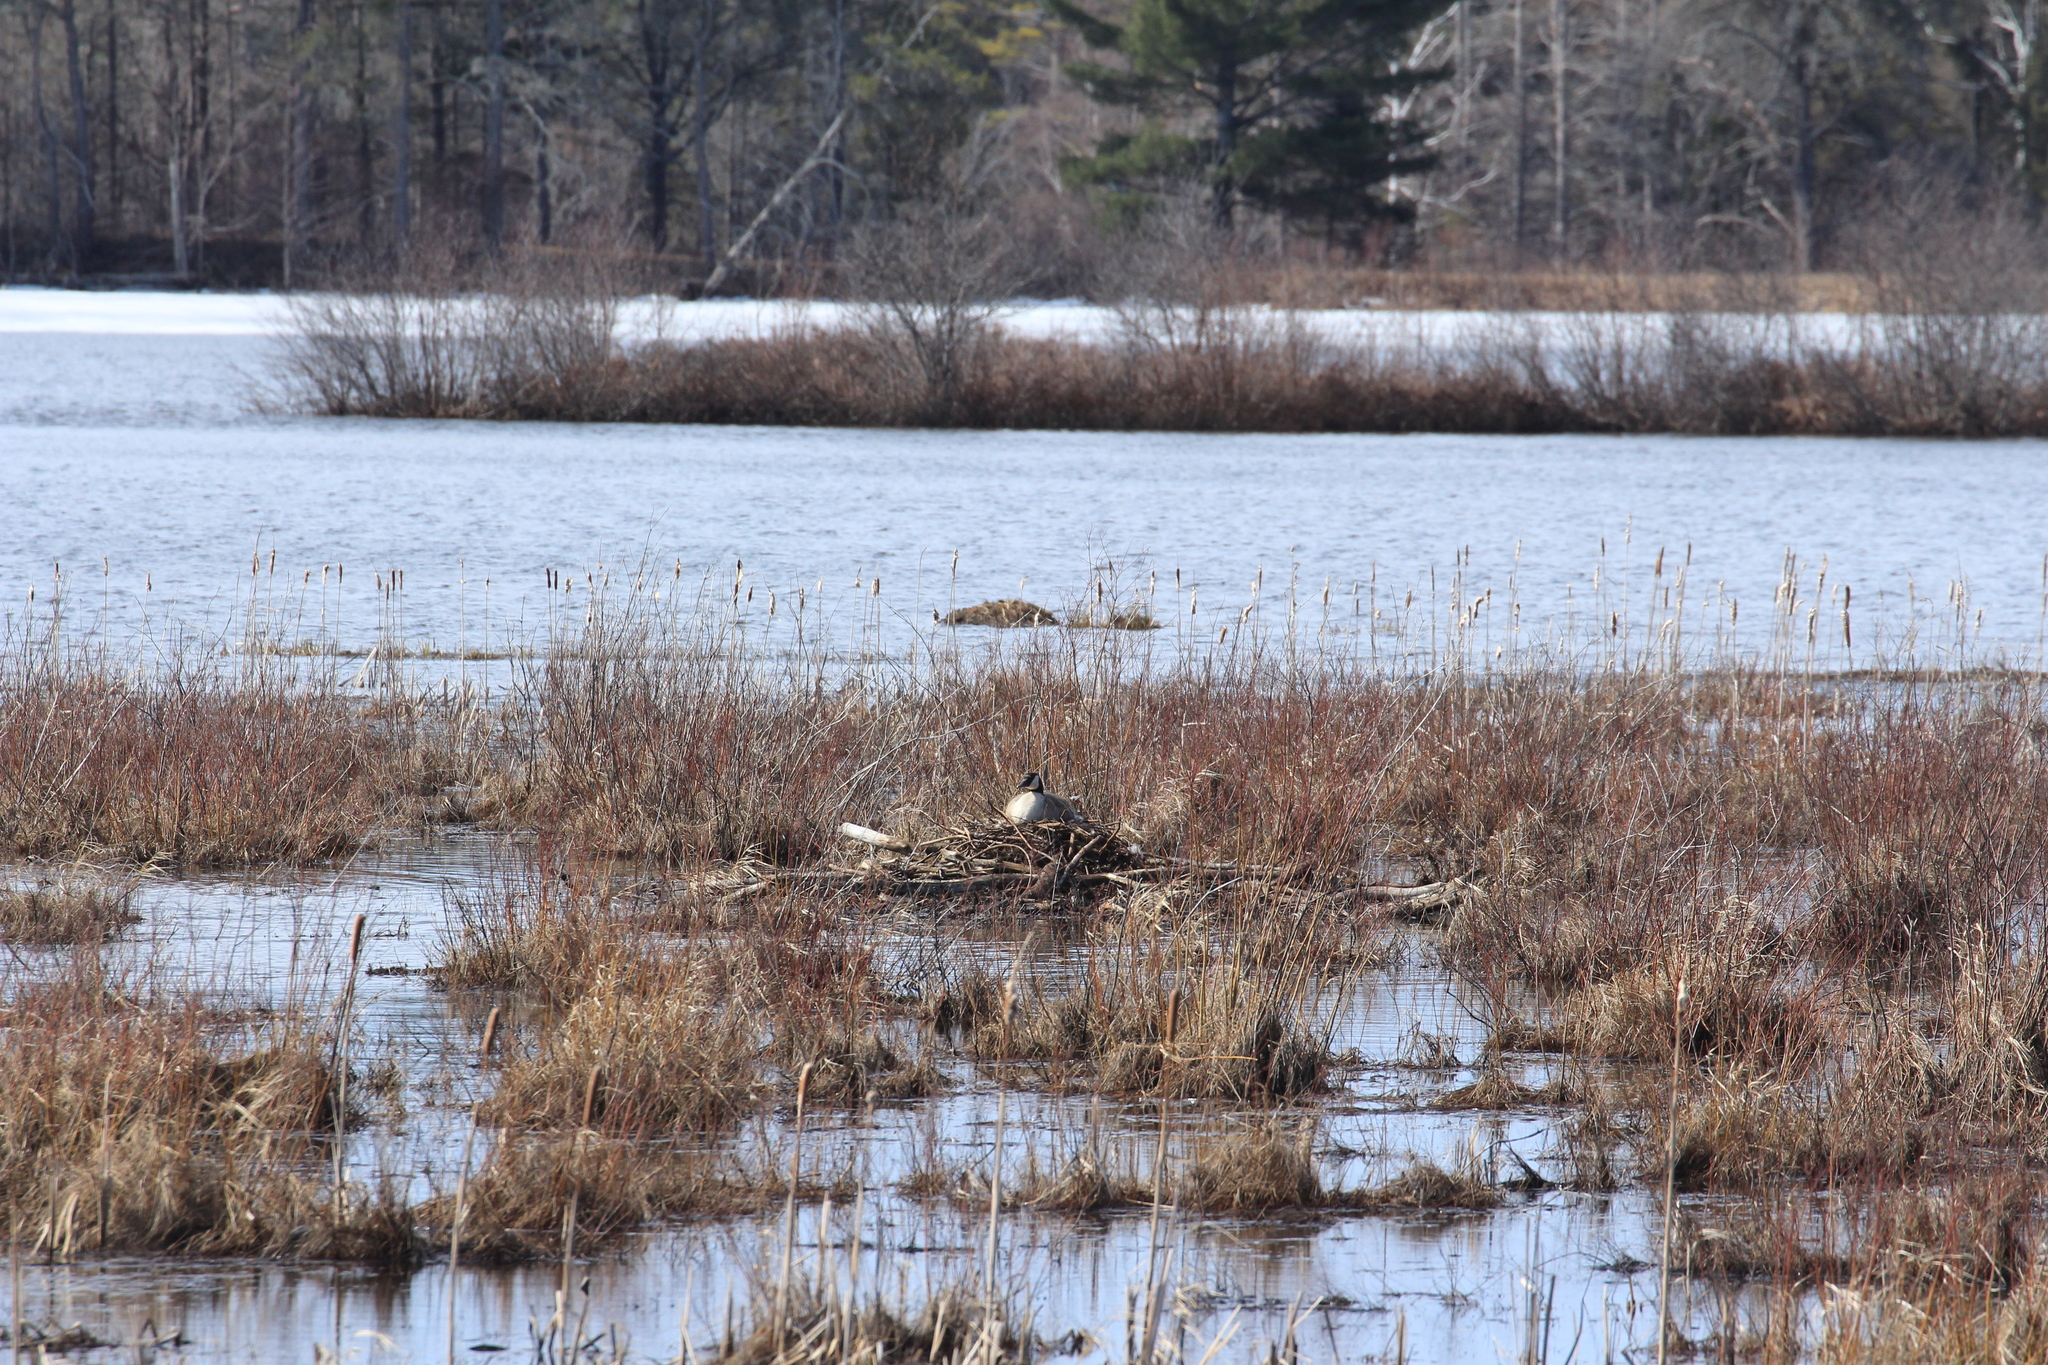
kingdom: Animalia
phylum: Chordata
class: Aves
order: Anseriformes
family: Anatidae
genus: Branta
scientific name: Branta canadensis
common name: Canada goose
